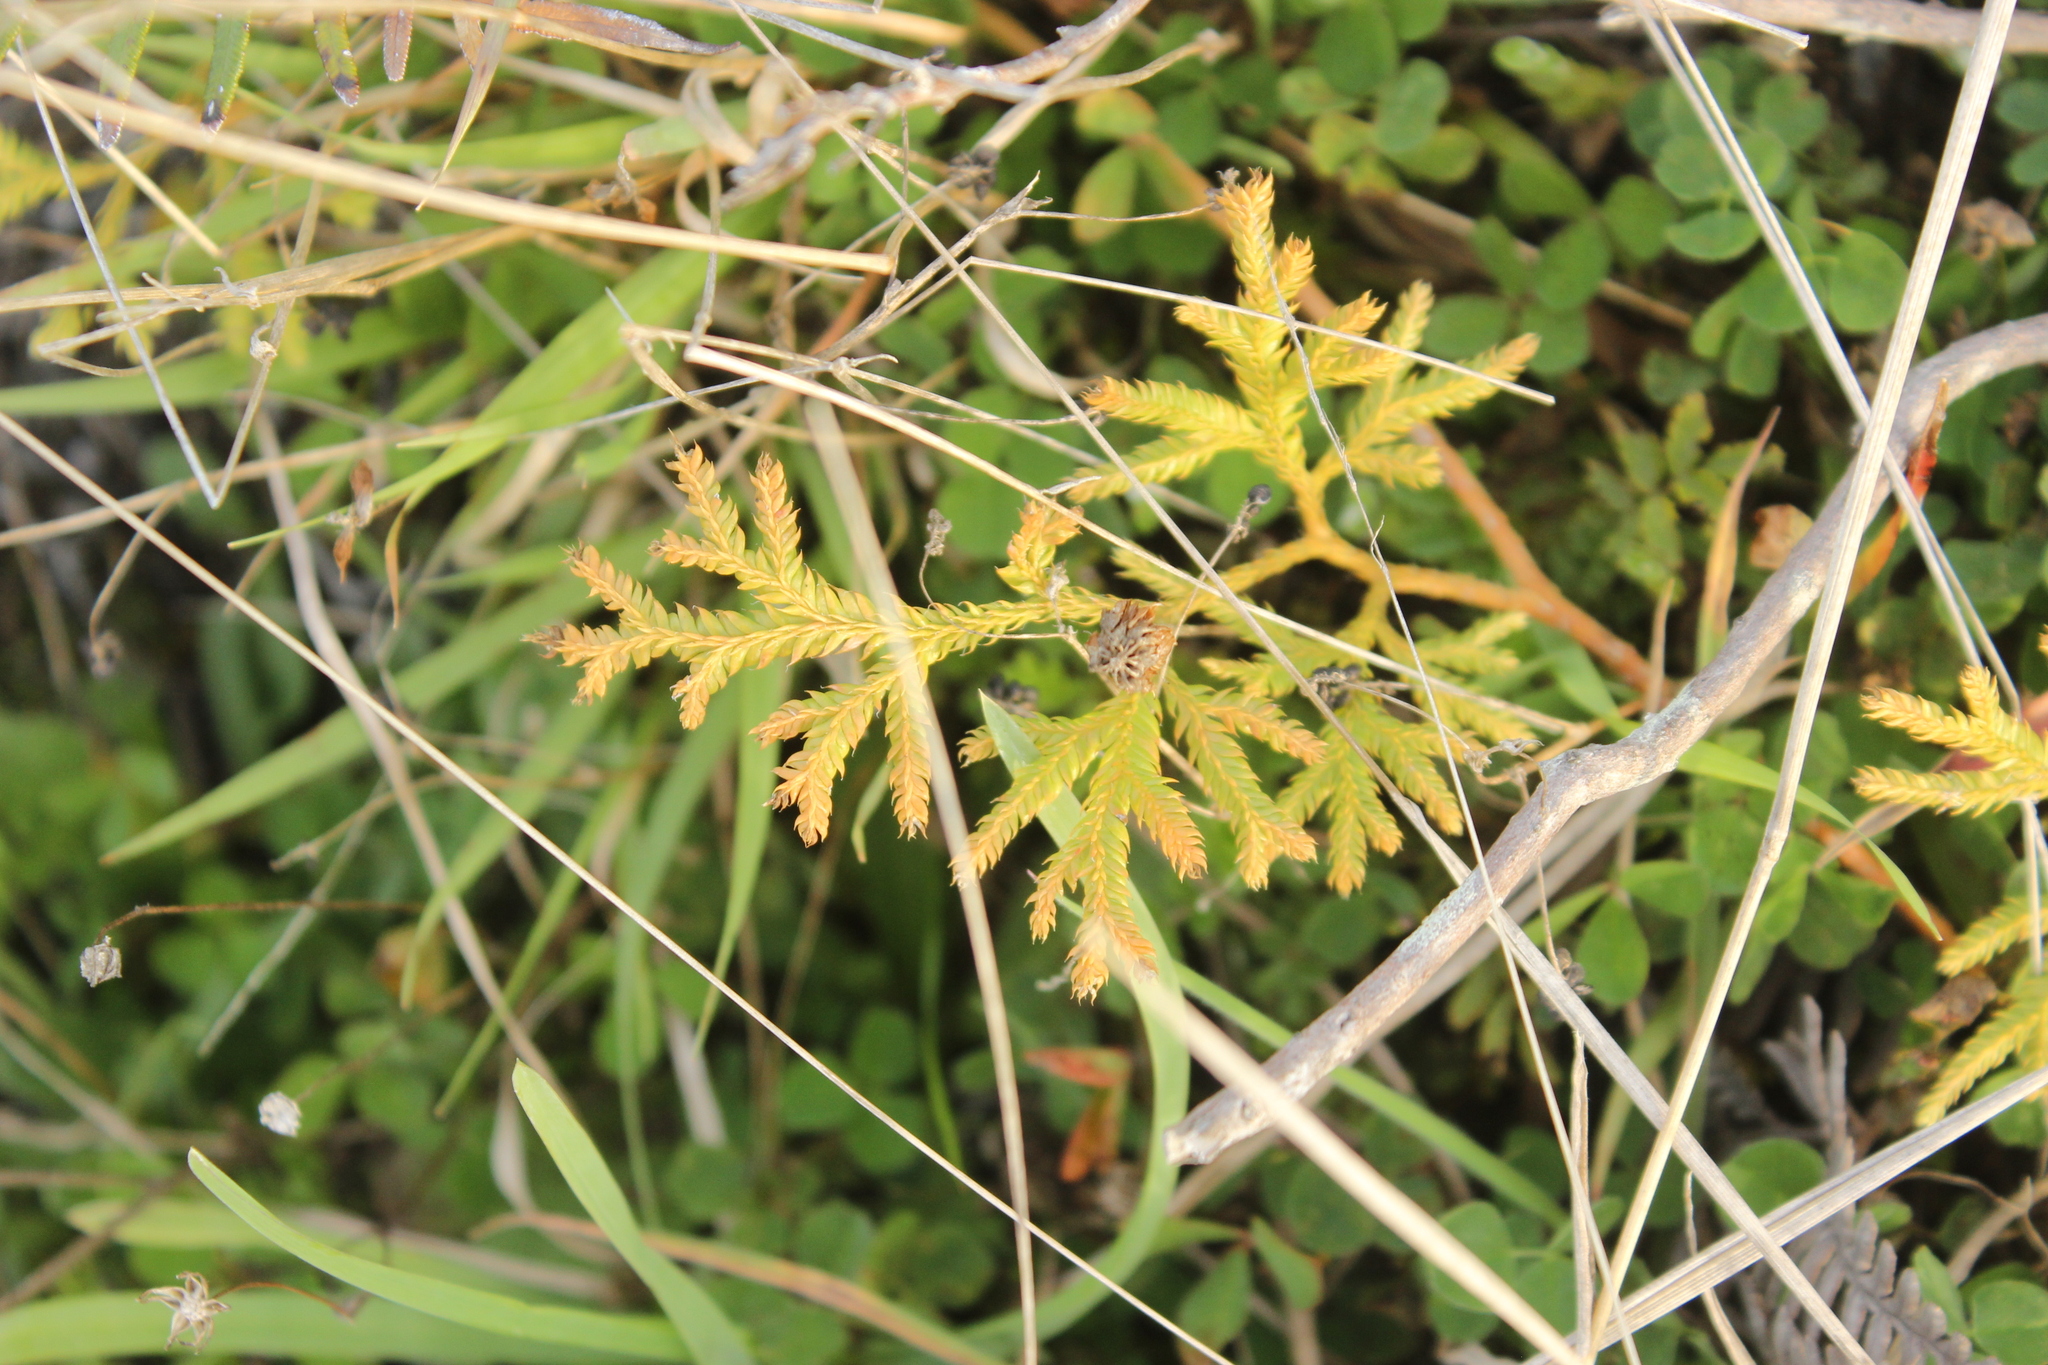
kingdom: Plantae
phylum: Tracheophyta
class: Lycopodiopsida
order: Lycopodiales
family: Lycopodiaceae
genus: Lycopodium
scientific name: Lycopodium volubile
